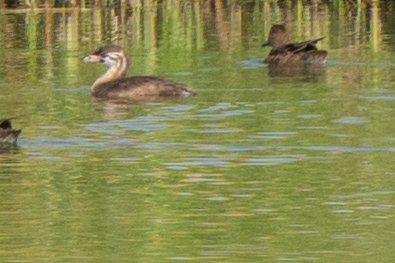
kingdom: Animalia
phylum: Chordata
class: Aves
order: Podicipediformes
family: Podicipedidae
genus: Podilymbus
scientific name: Podilymbus podiceps
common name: Pied-billed grebe
